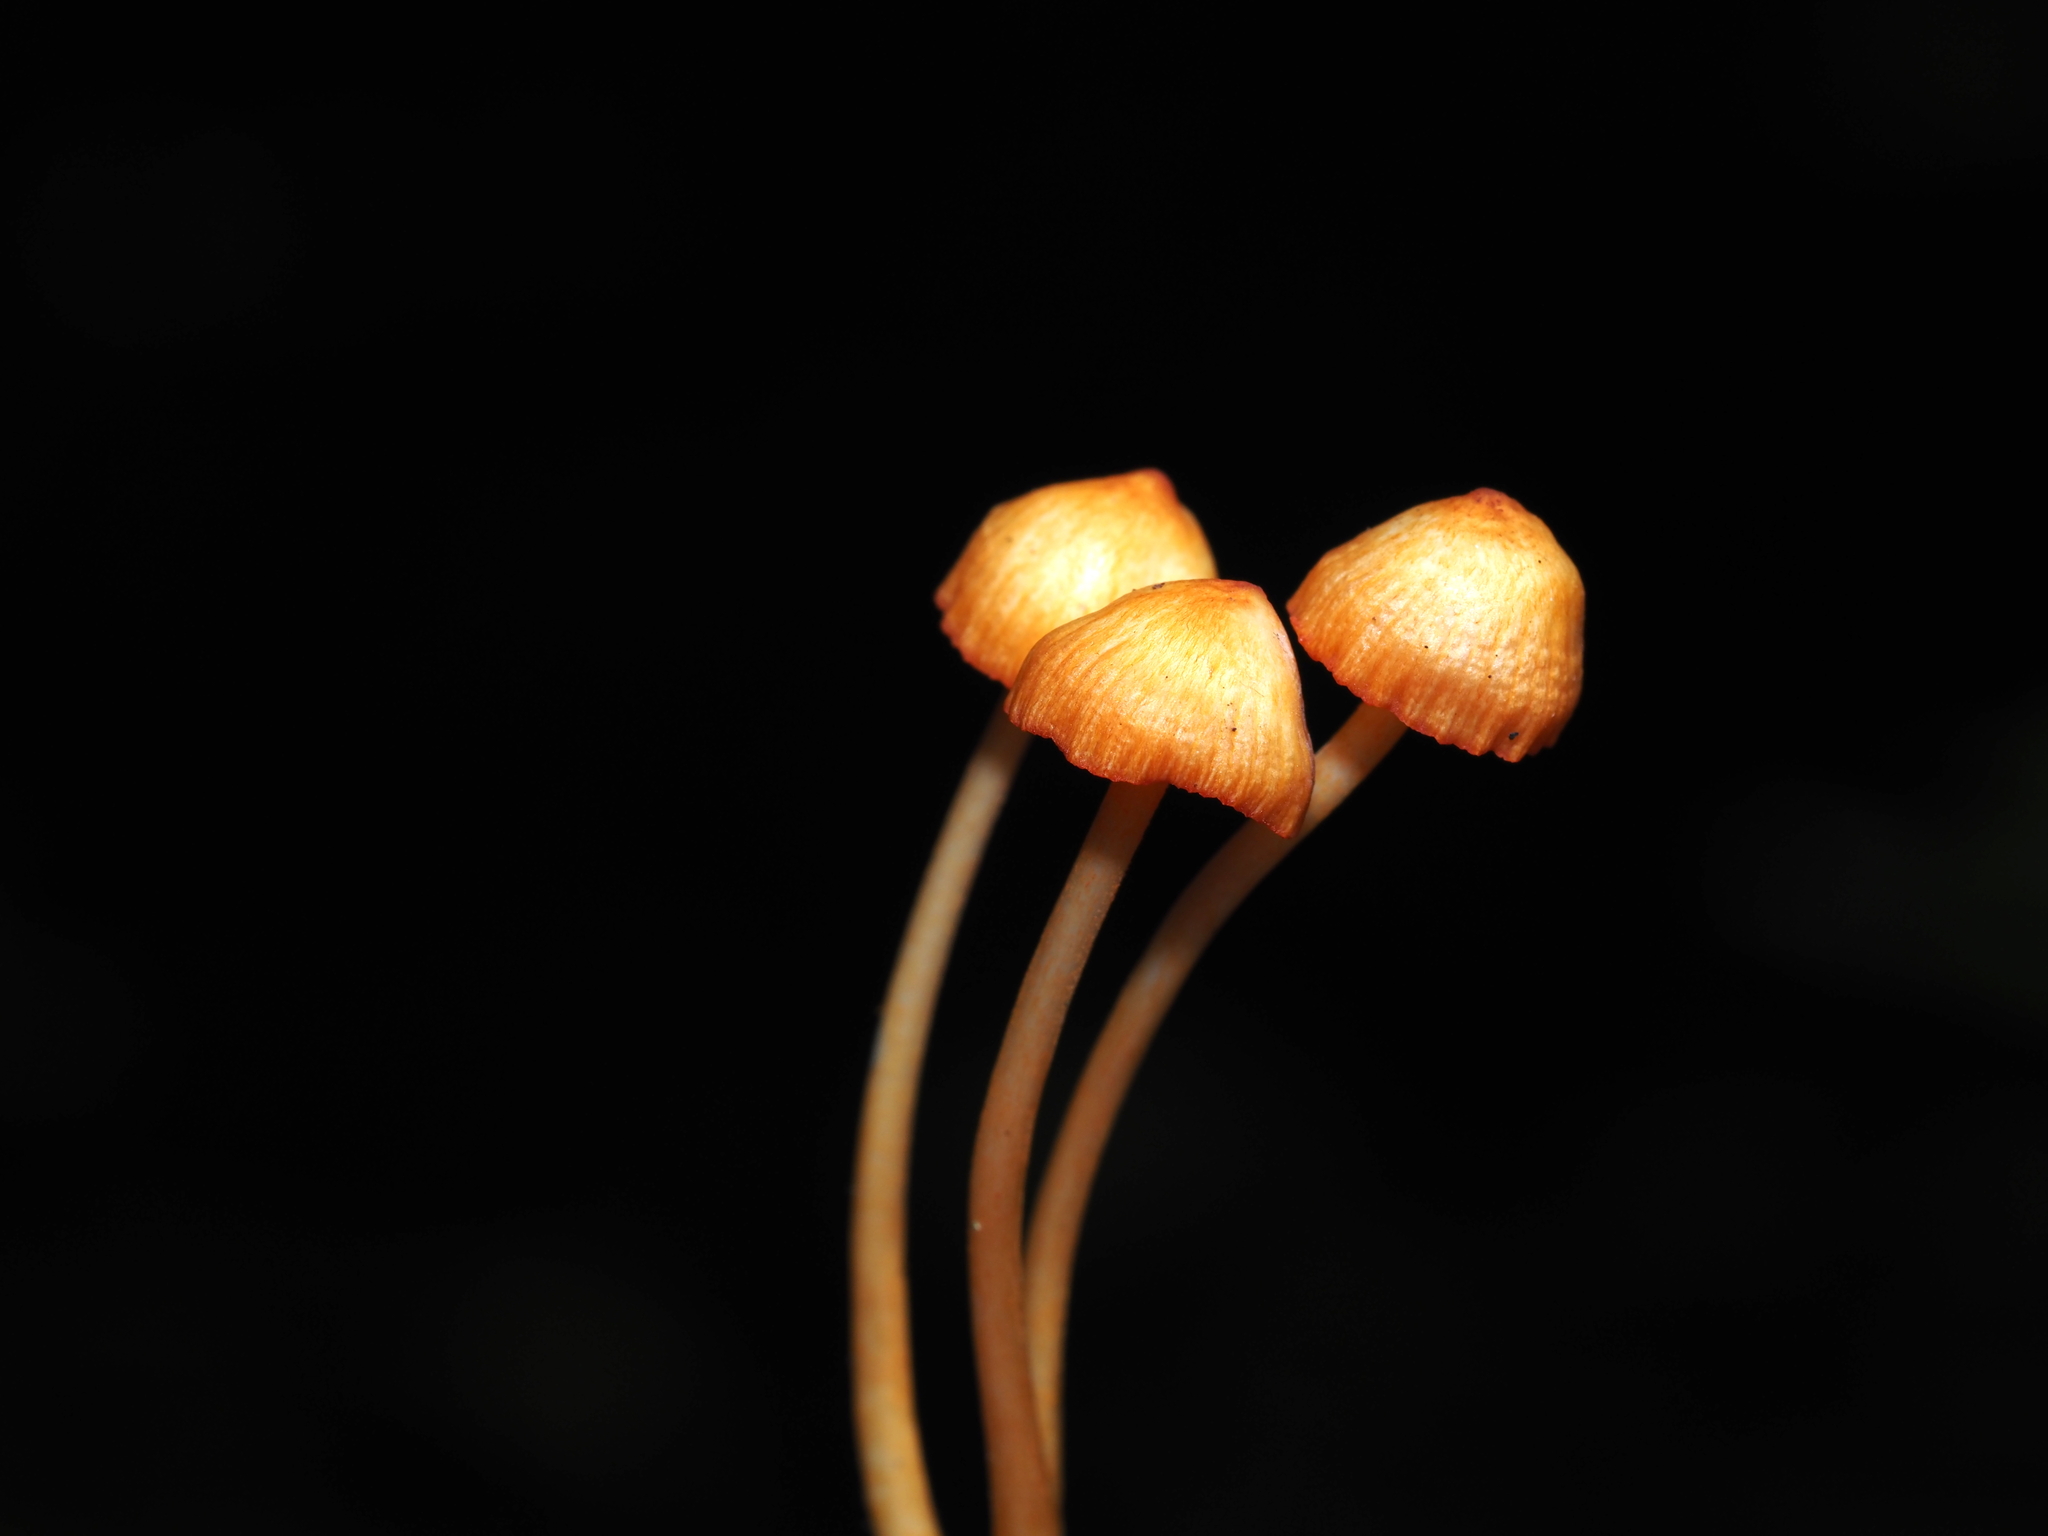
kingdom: Fungi
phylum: Basidiomycota
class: Agaricomycetes
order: Agaricales
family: Mycenaceae
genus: Mycena
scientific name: Mycena leaiana
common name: Orange mycena
